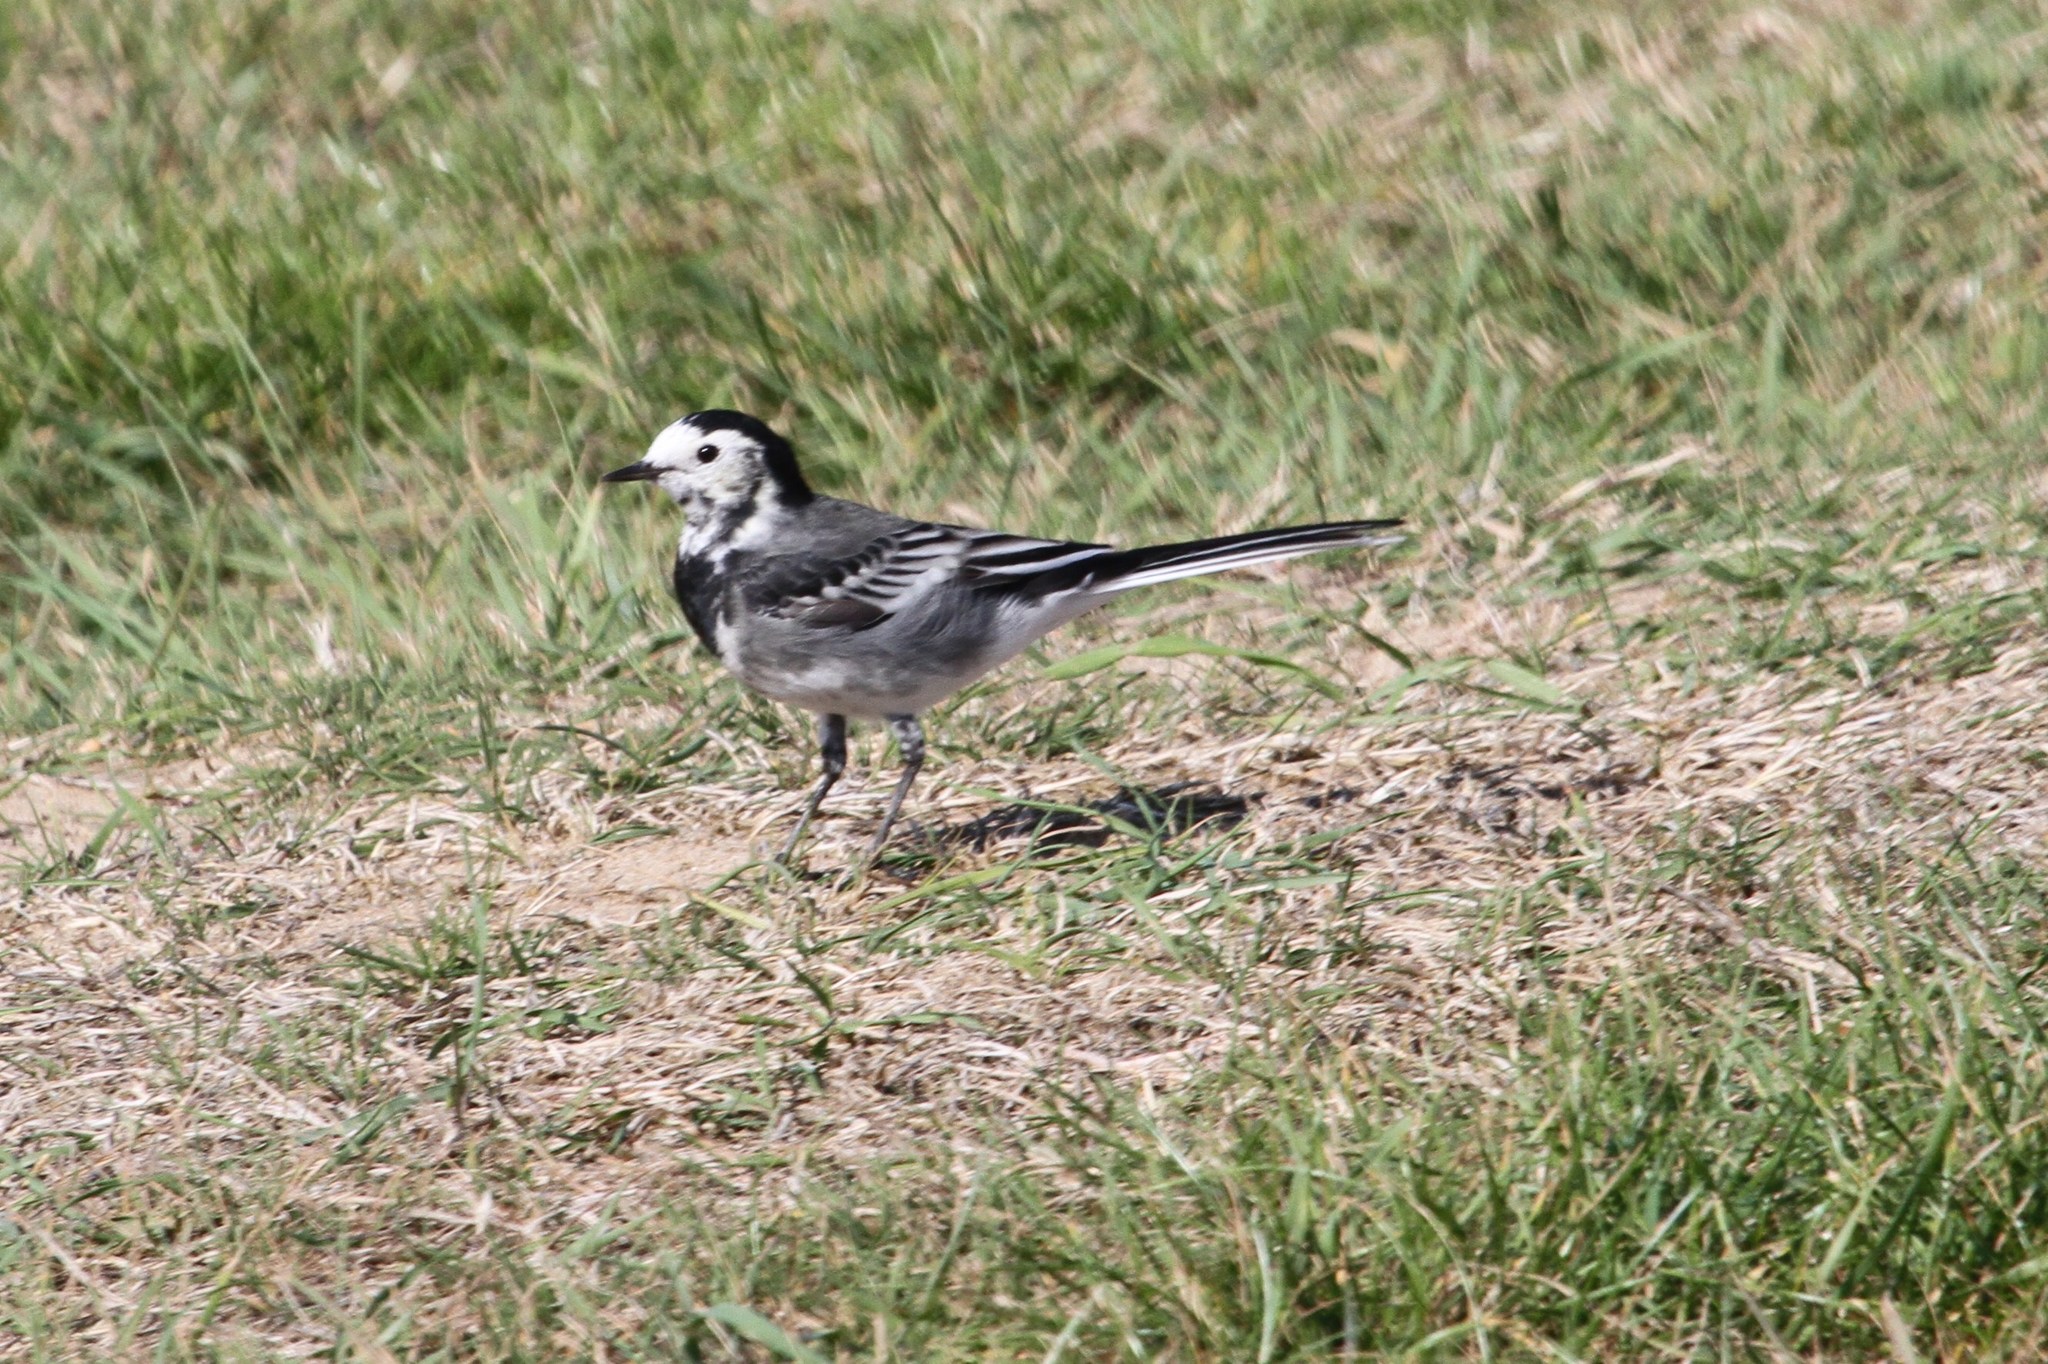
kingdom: Animalia
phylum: Chordata
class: Aves
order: Passeriformes
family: Motacillidae
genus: Motacilla
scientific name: Motacilla alba
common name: White wagtail
